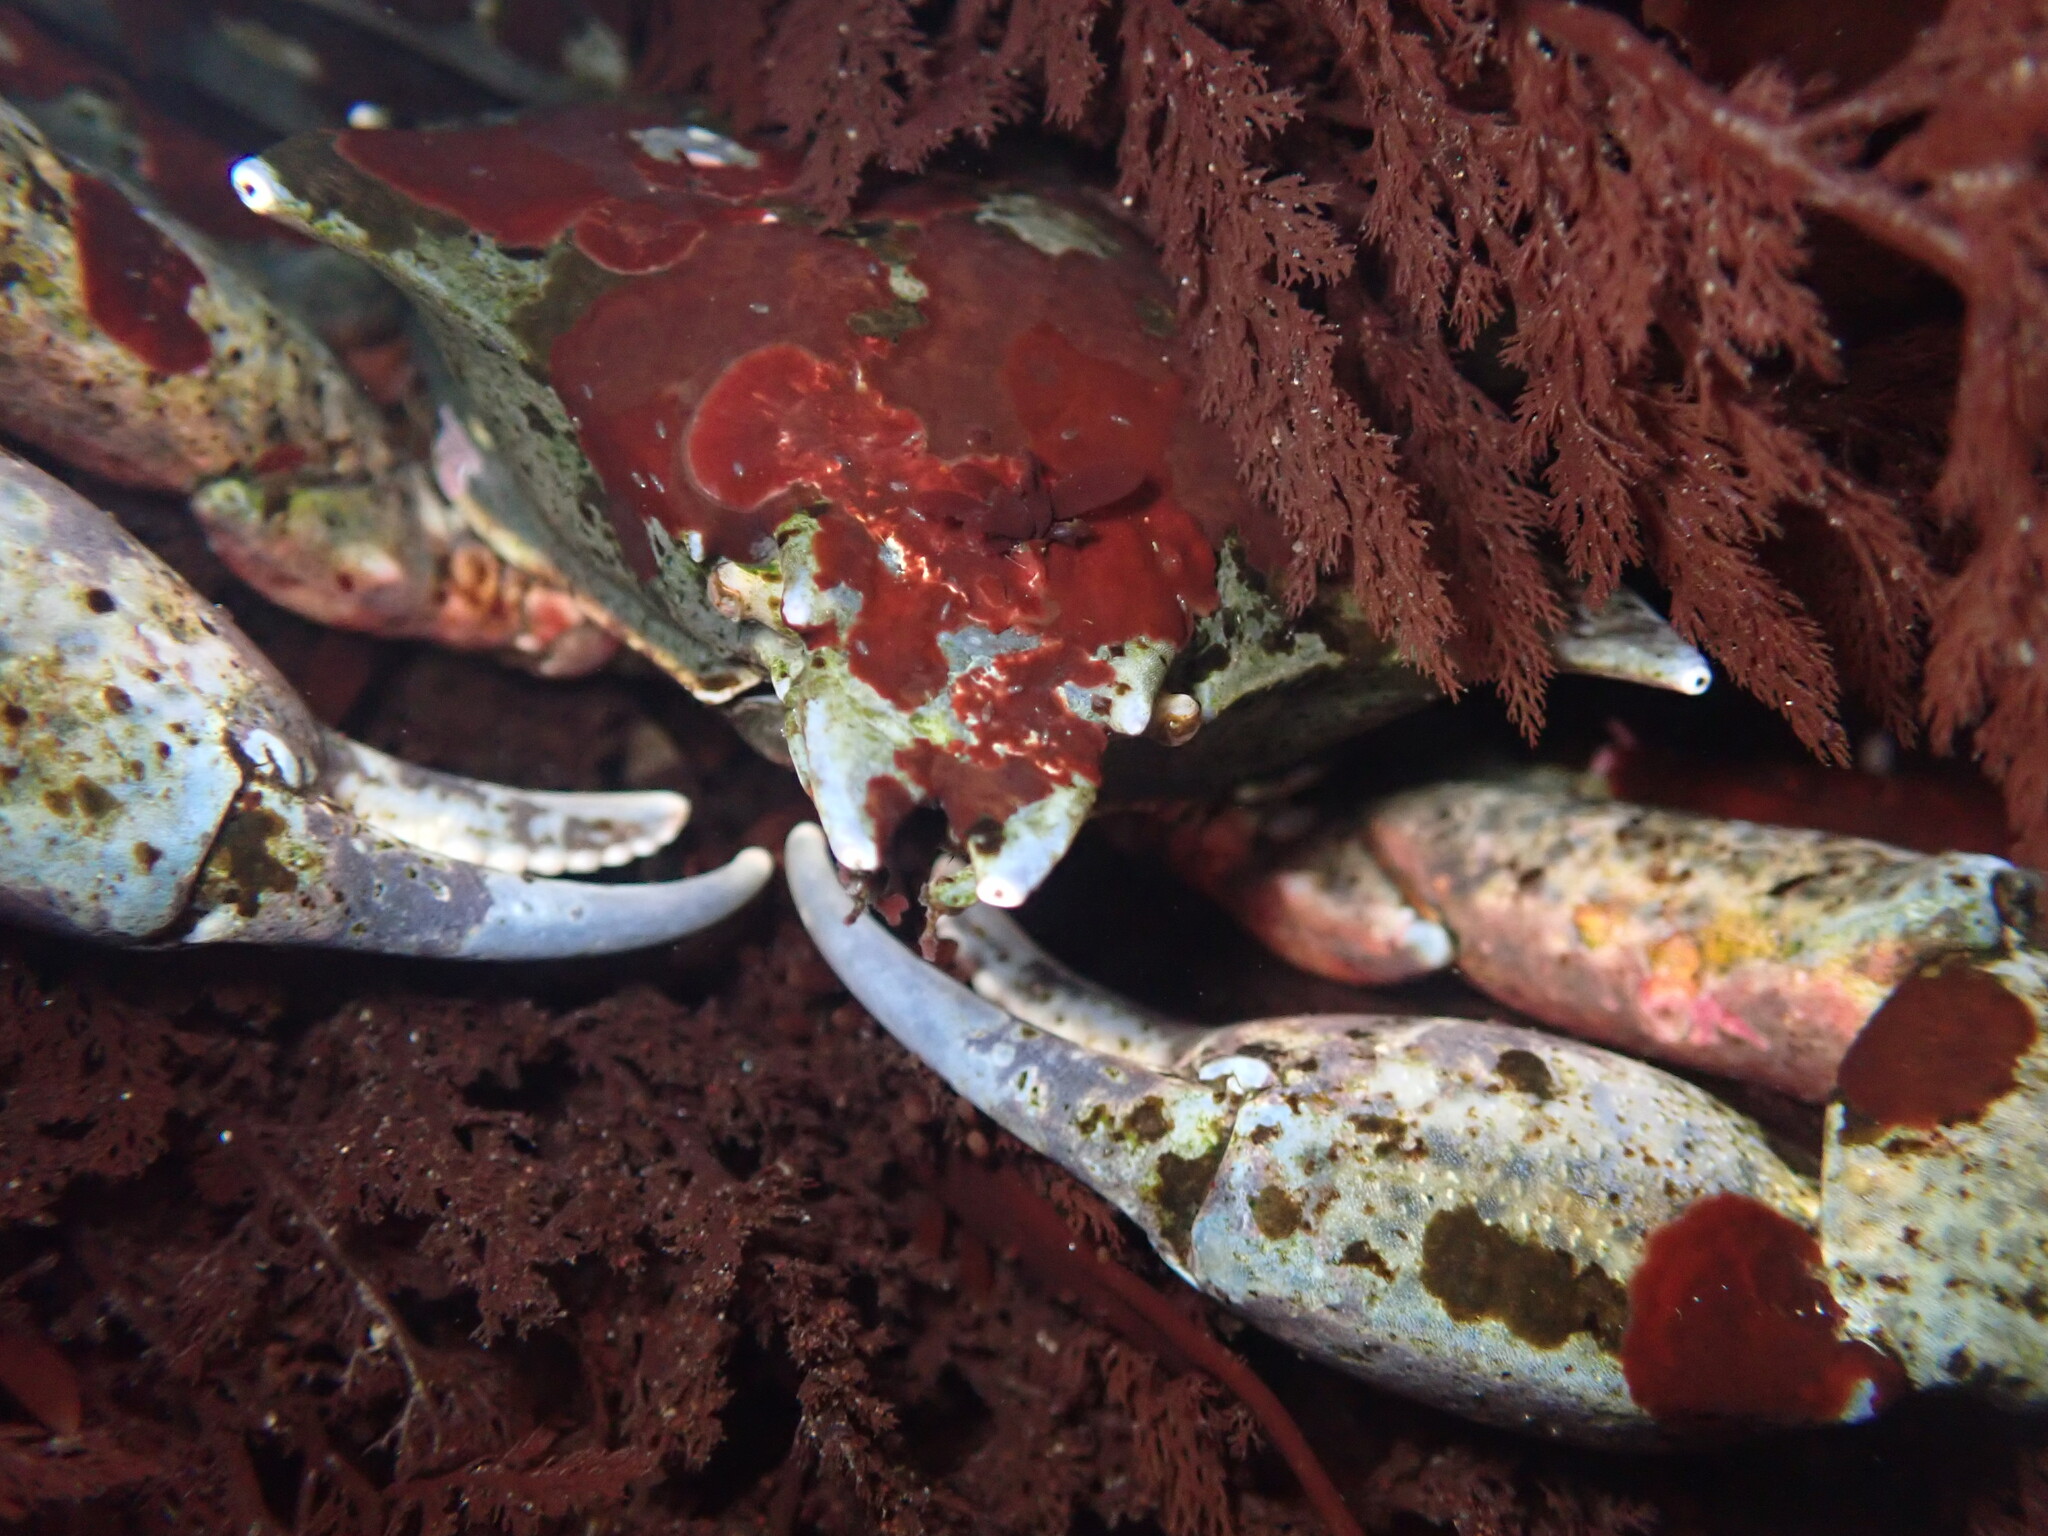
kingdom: Animalia
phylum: Arthropoda
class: Malacostraca
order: Decapoda
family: Epialtidae
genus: Pugettia
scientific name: Pugettia producta
